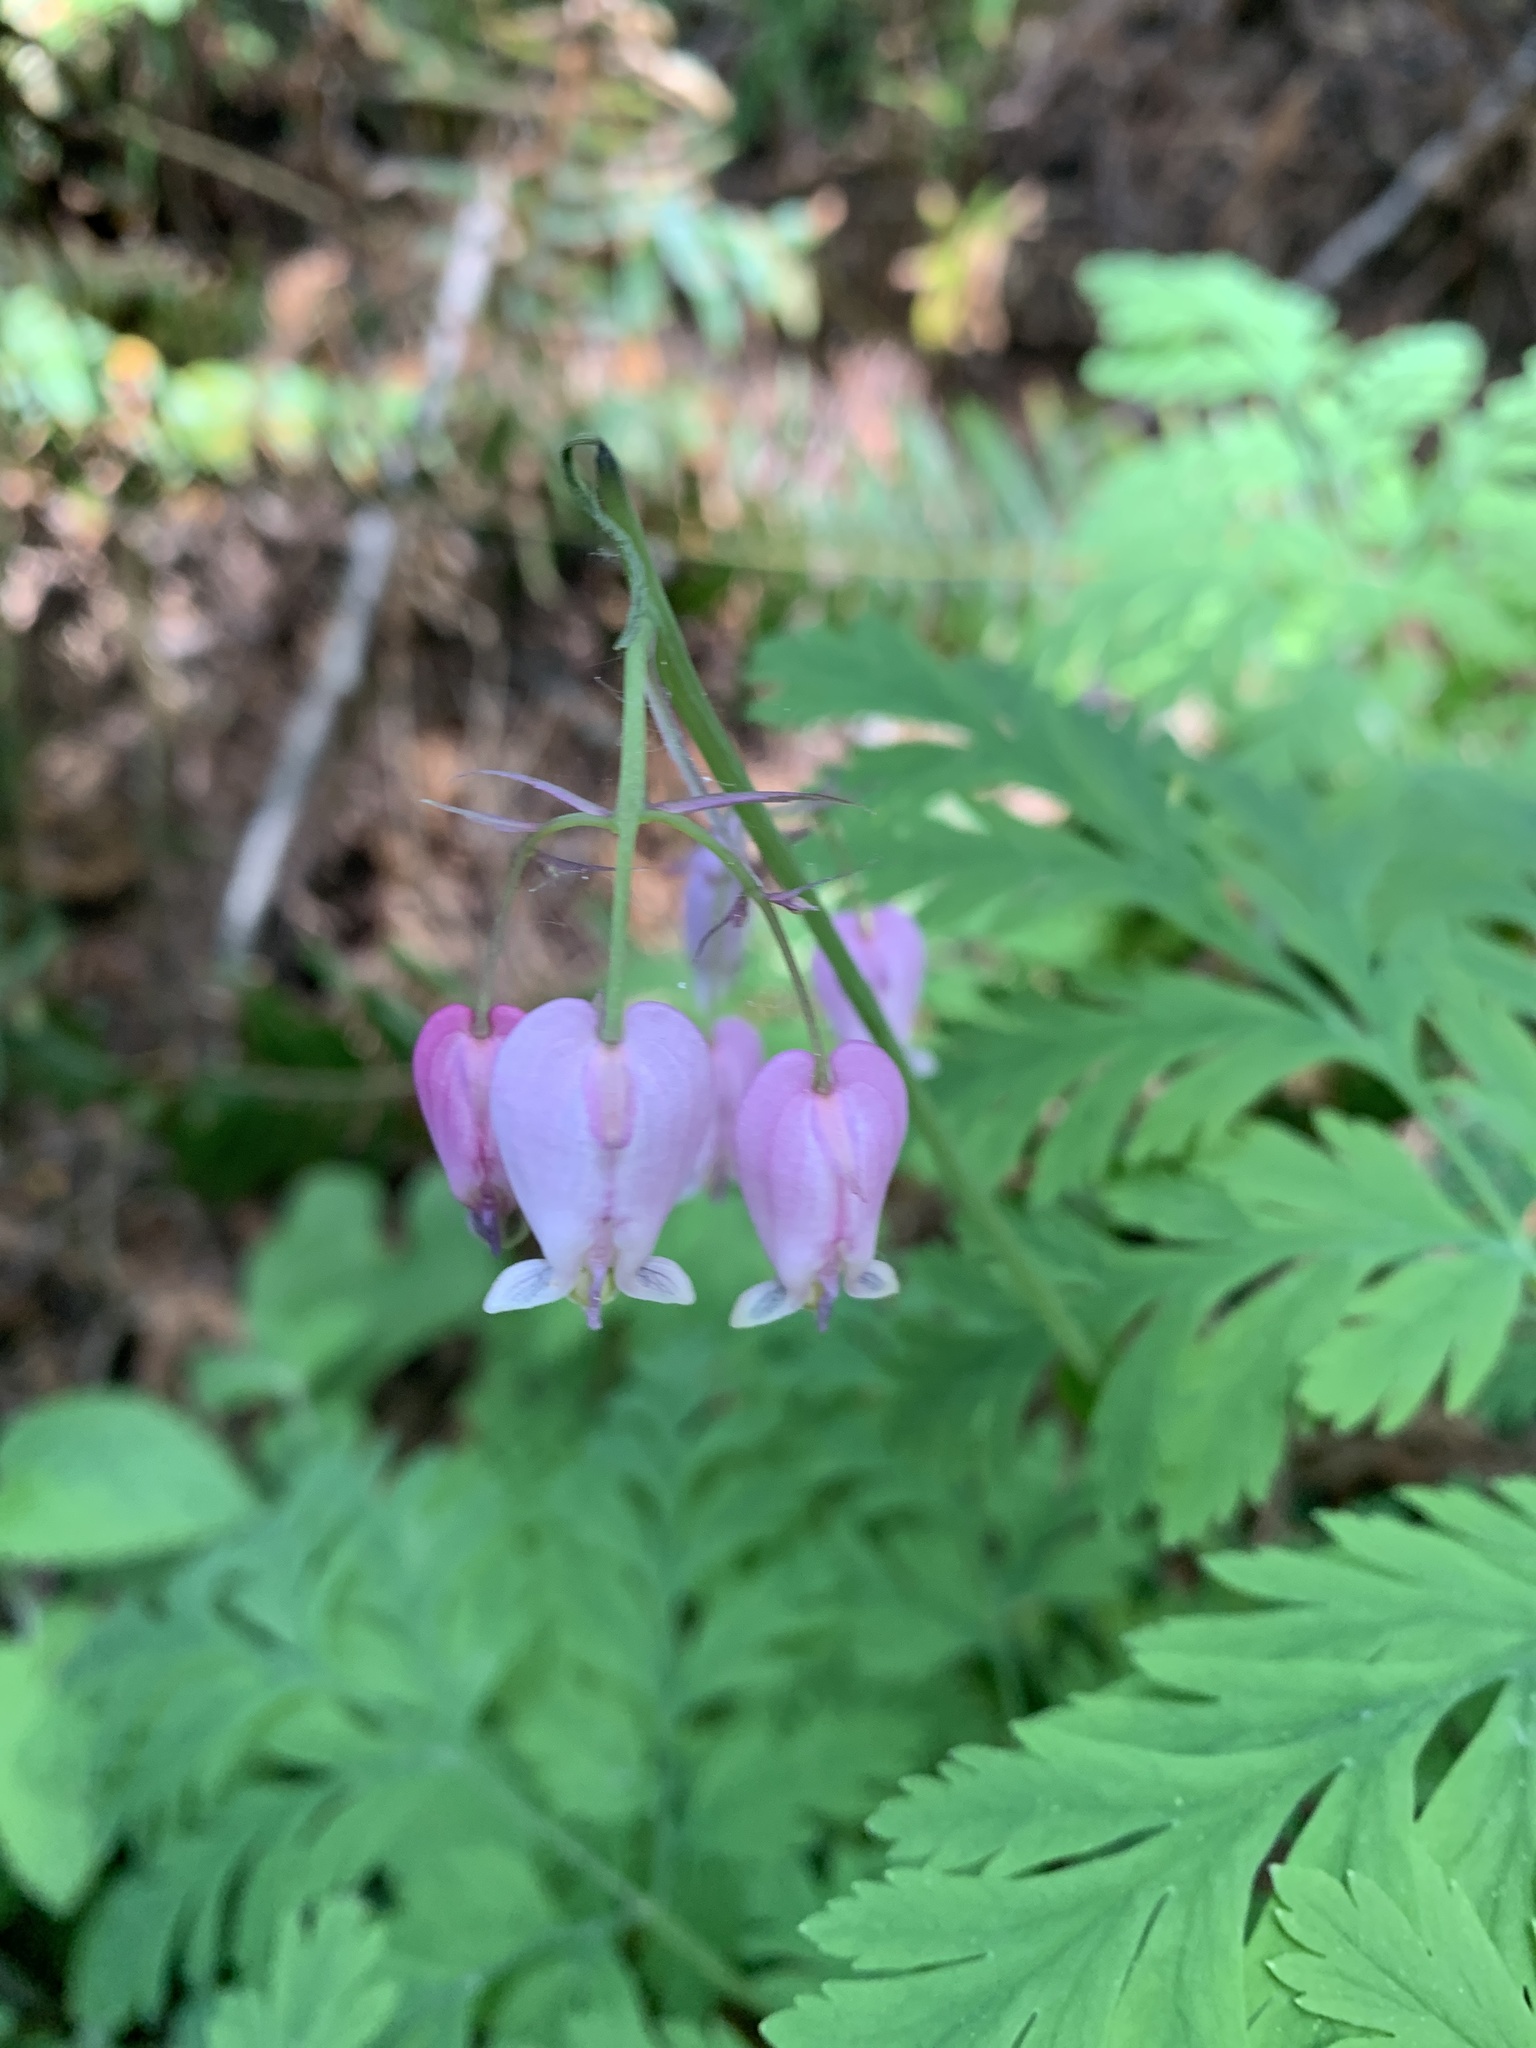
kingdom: Plantae
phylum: Tracheophyta
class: Magnoliopsida
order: Ranunculales
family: Papaveraceae
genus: Dicentra
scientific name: Dicentra formosa
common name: Bleeding-heart
